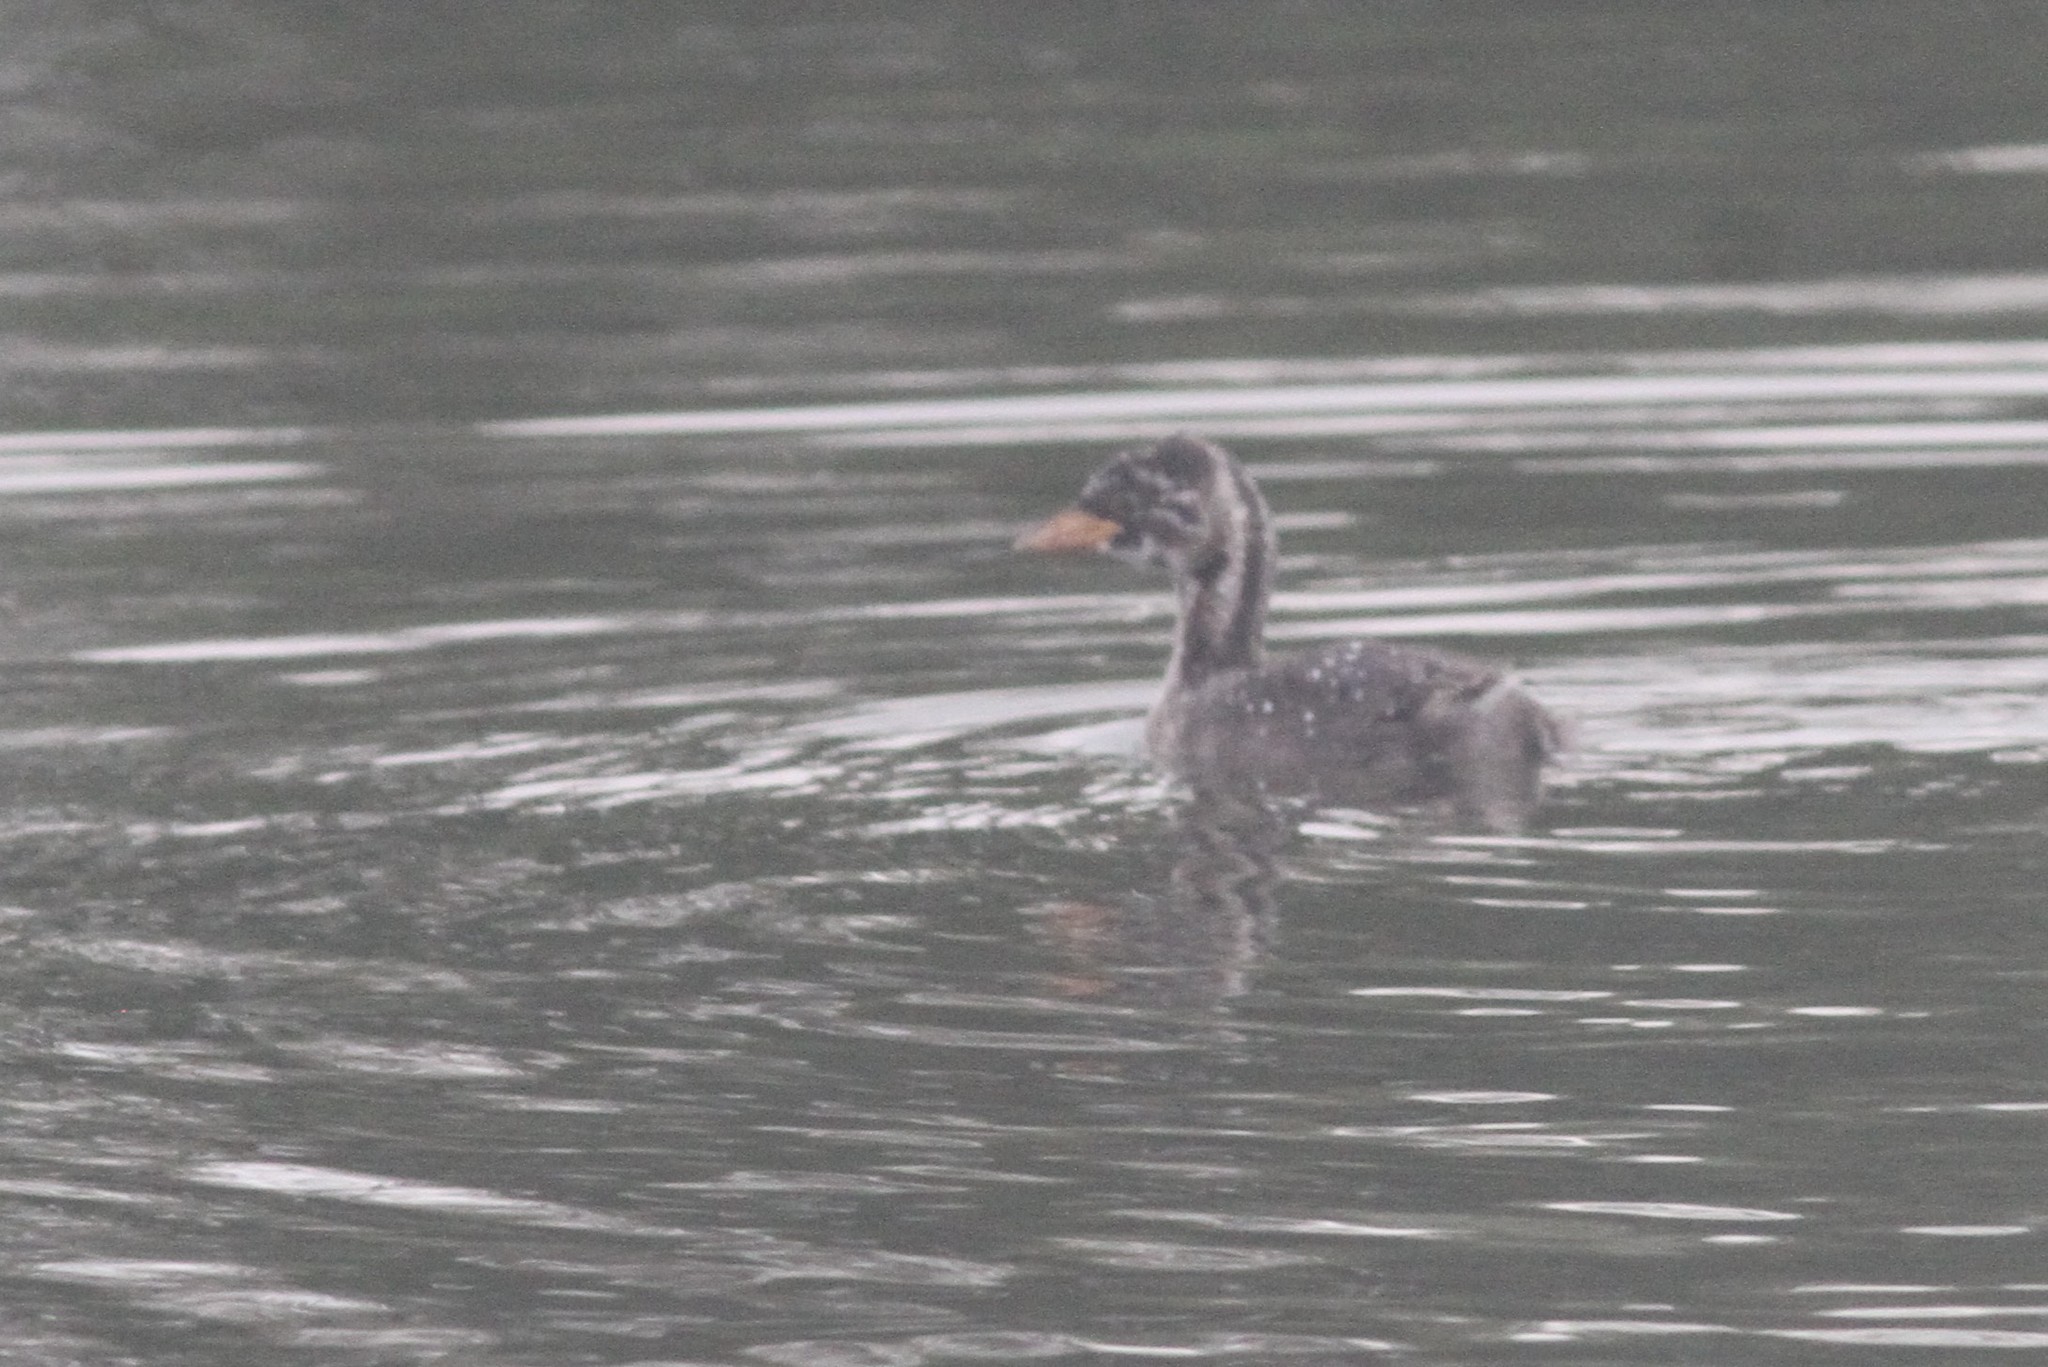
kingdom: Animalia
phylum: Chordata
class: Aves
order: Podicipediformes
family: Podicipedidae
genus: Tachybaptus
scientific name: Tachybaptus ruficollis
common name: Little grebe
